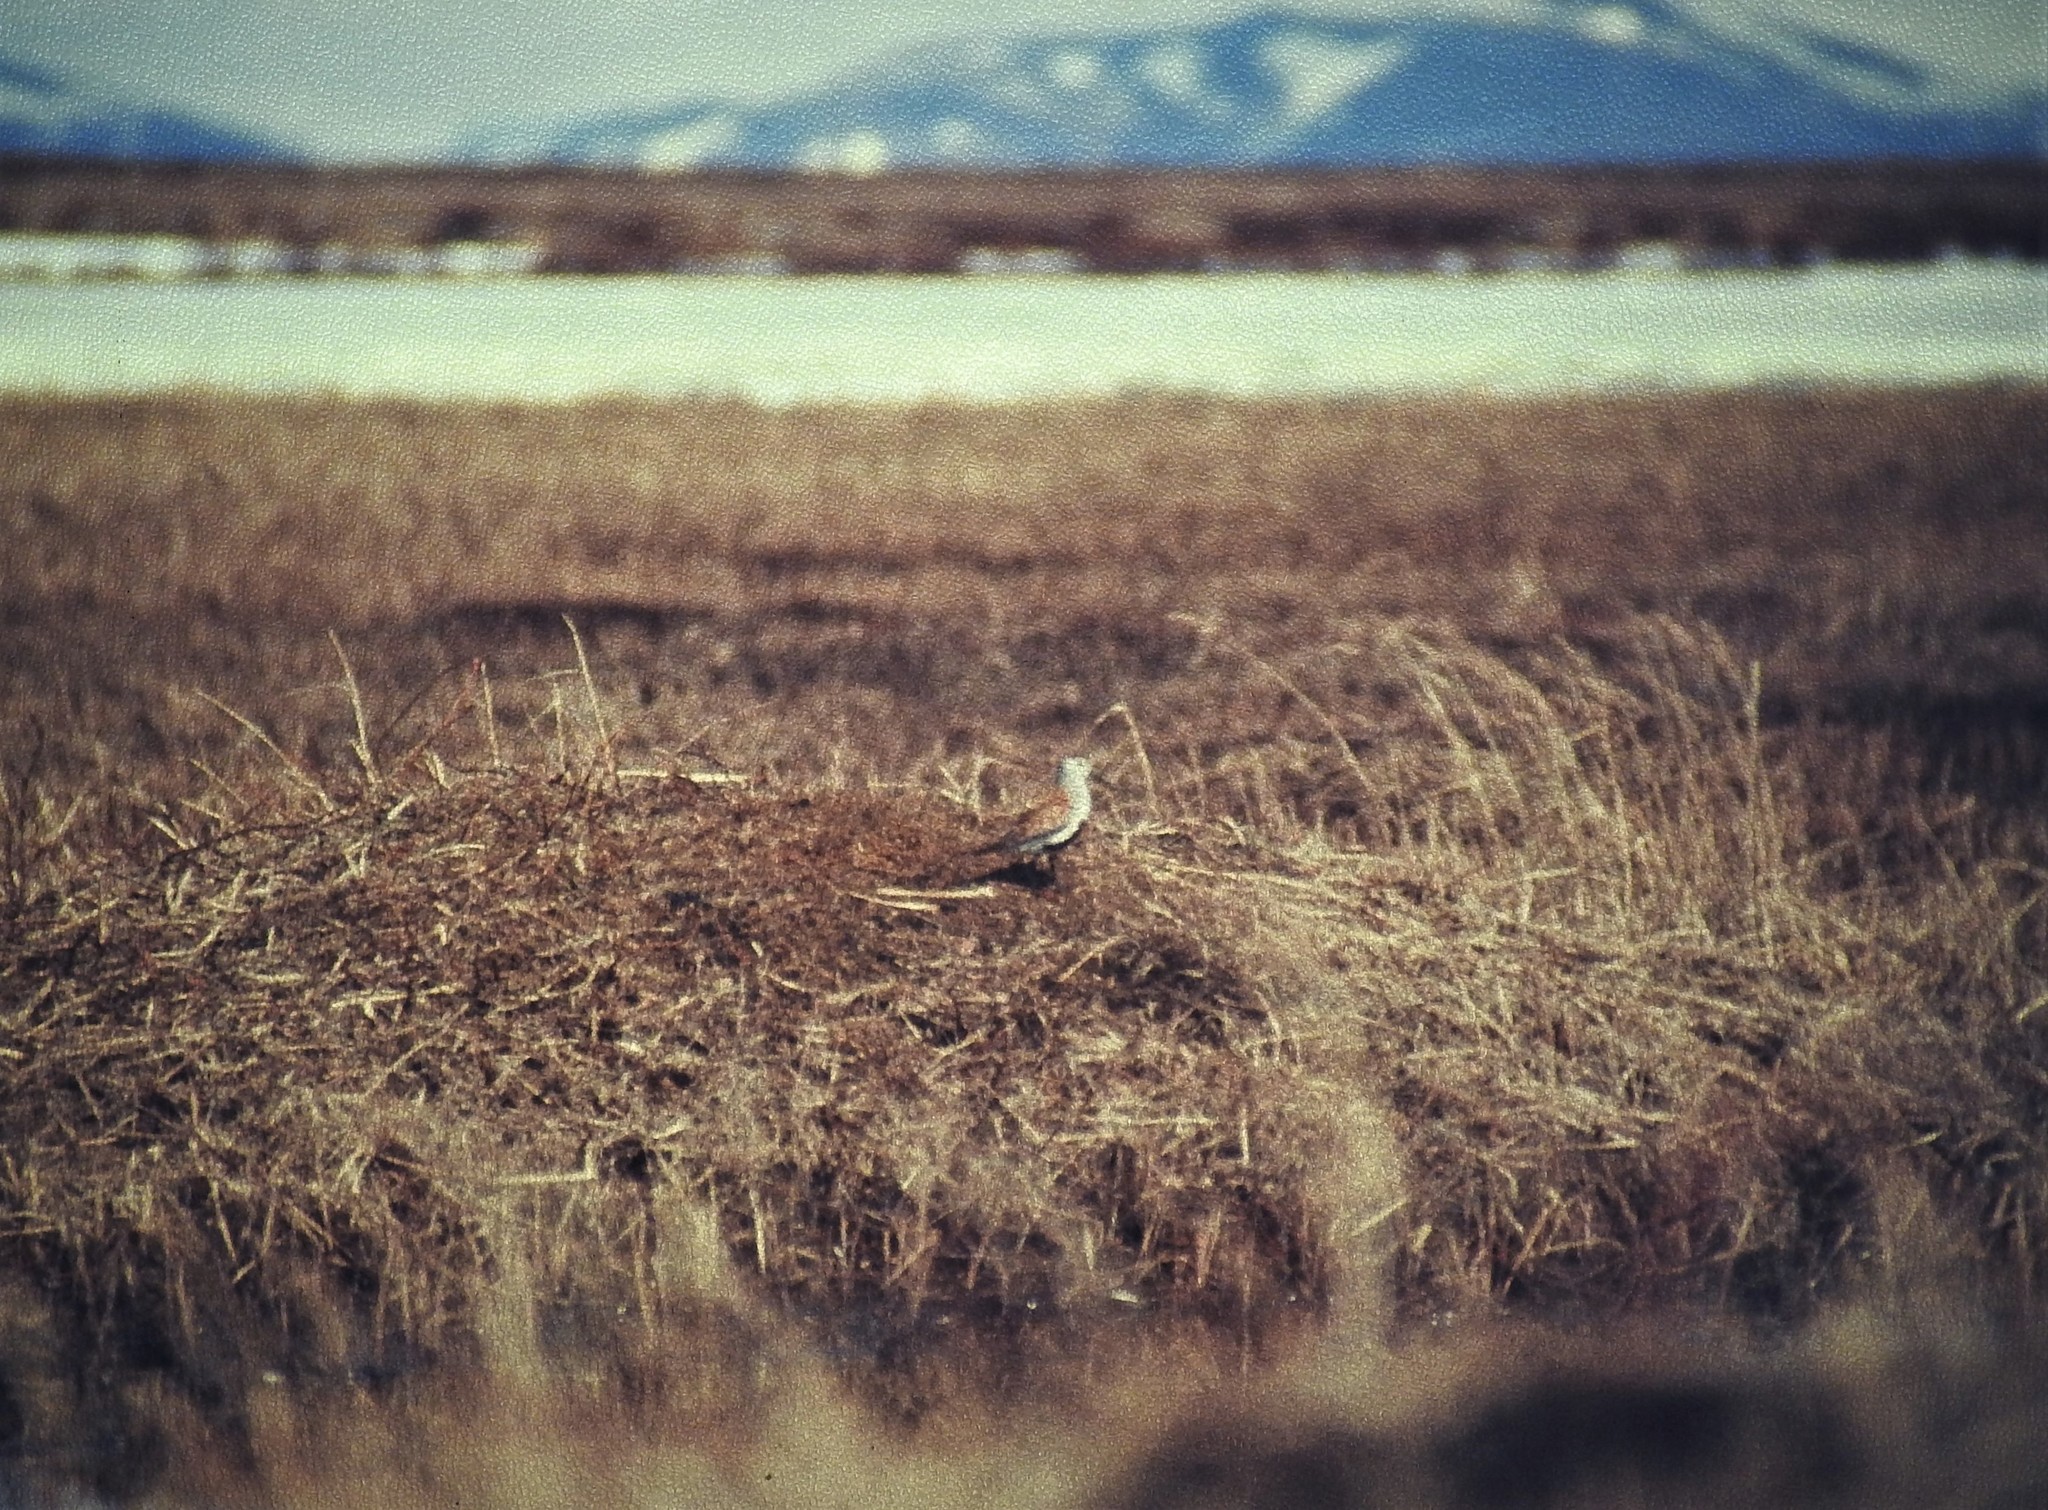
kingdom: Animalia
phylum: Chordata
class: Aves
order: Charadriiformes
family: Scolopacidae
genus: Calidris
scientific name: Calidris alpina
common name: Dunlin
